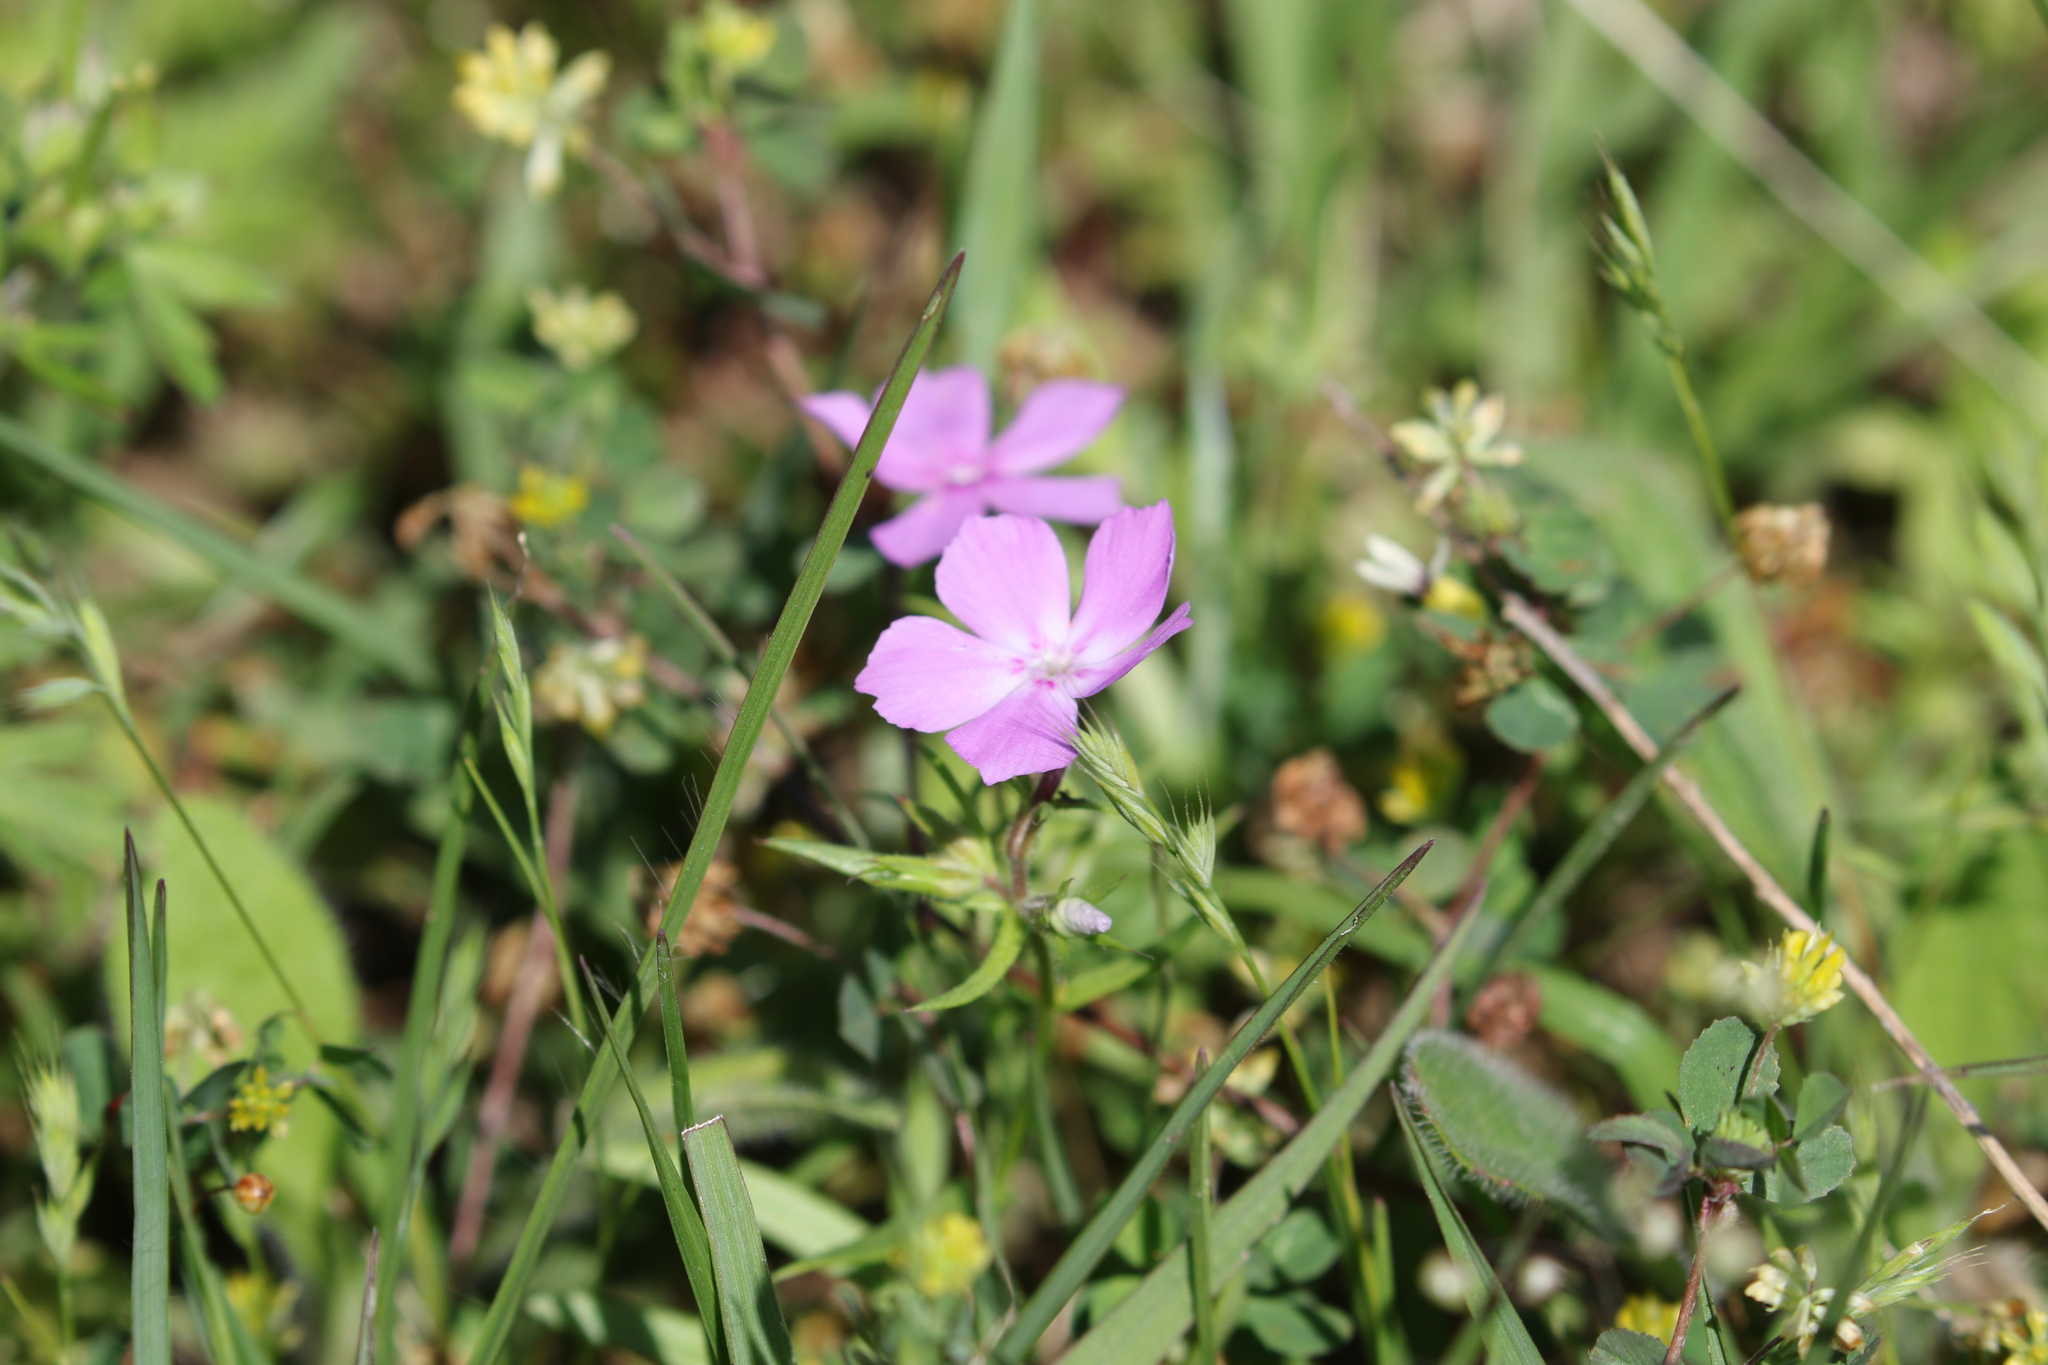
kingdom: Plantae
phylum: Tracheophyta
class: Magnoliopsida
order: Ericales
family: Polemoniaceae
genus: Phlox
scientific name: Phlox cuspidata
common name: Pointed phlox
